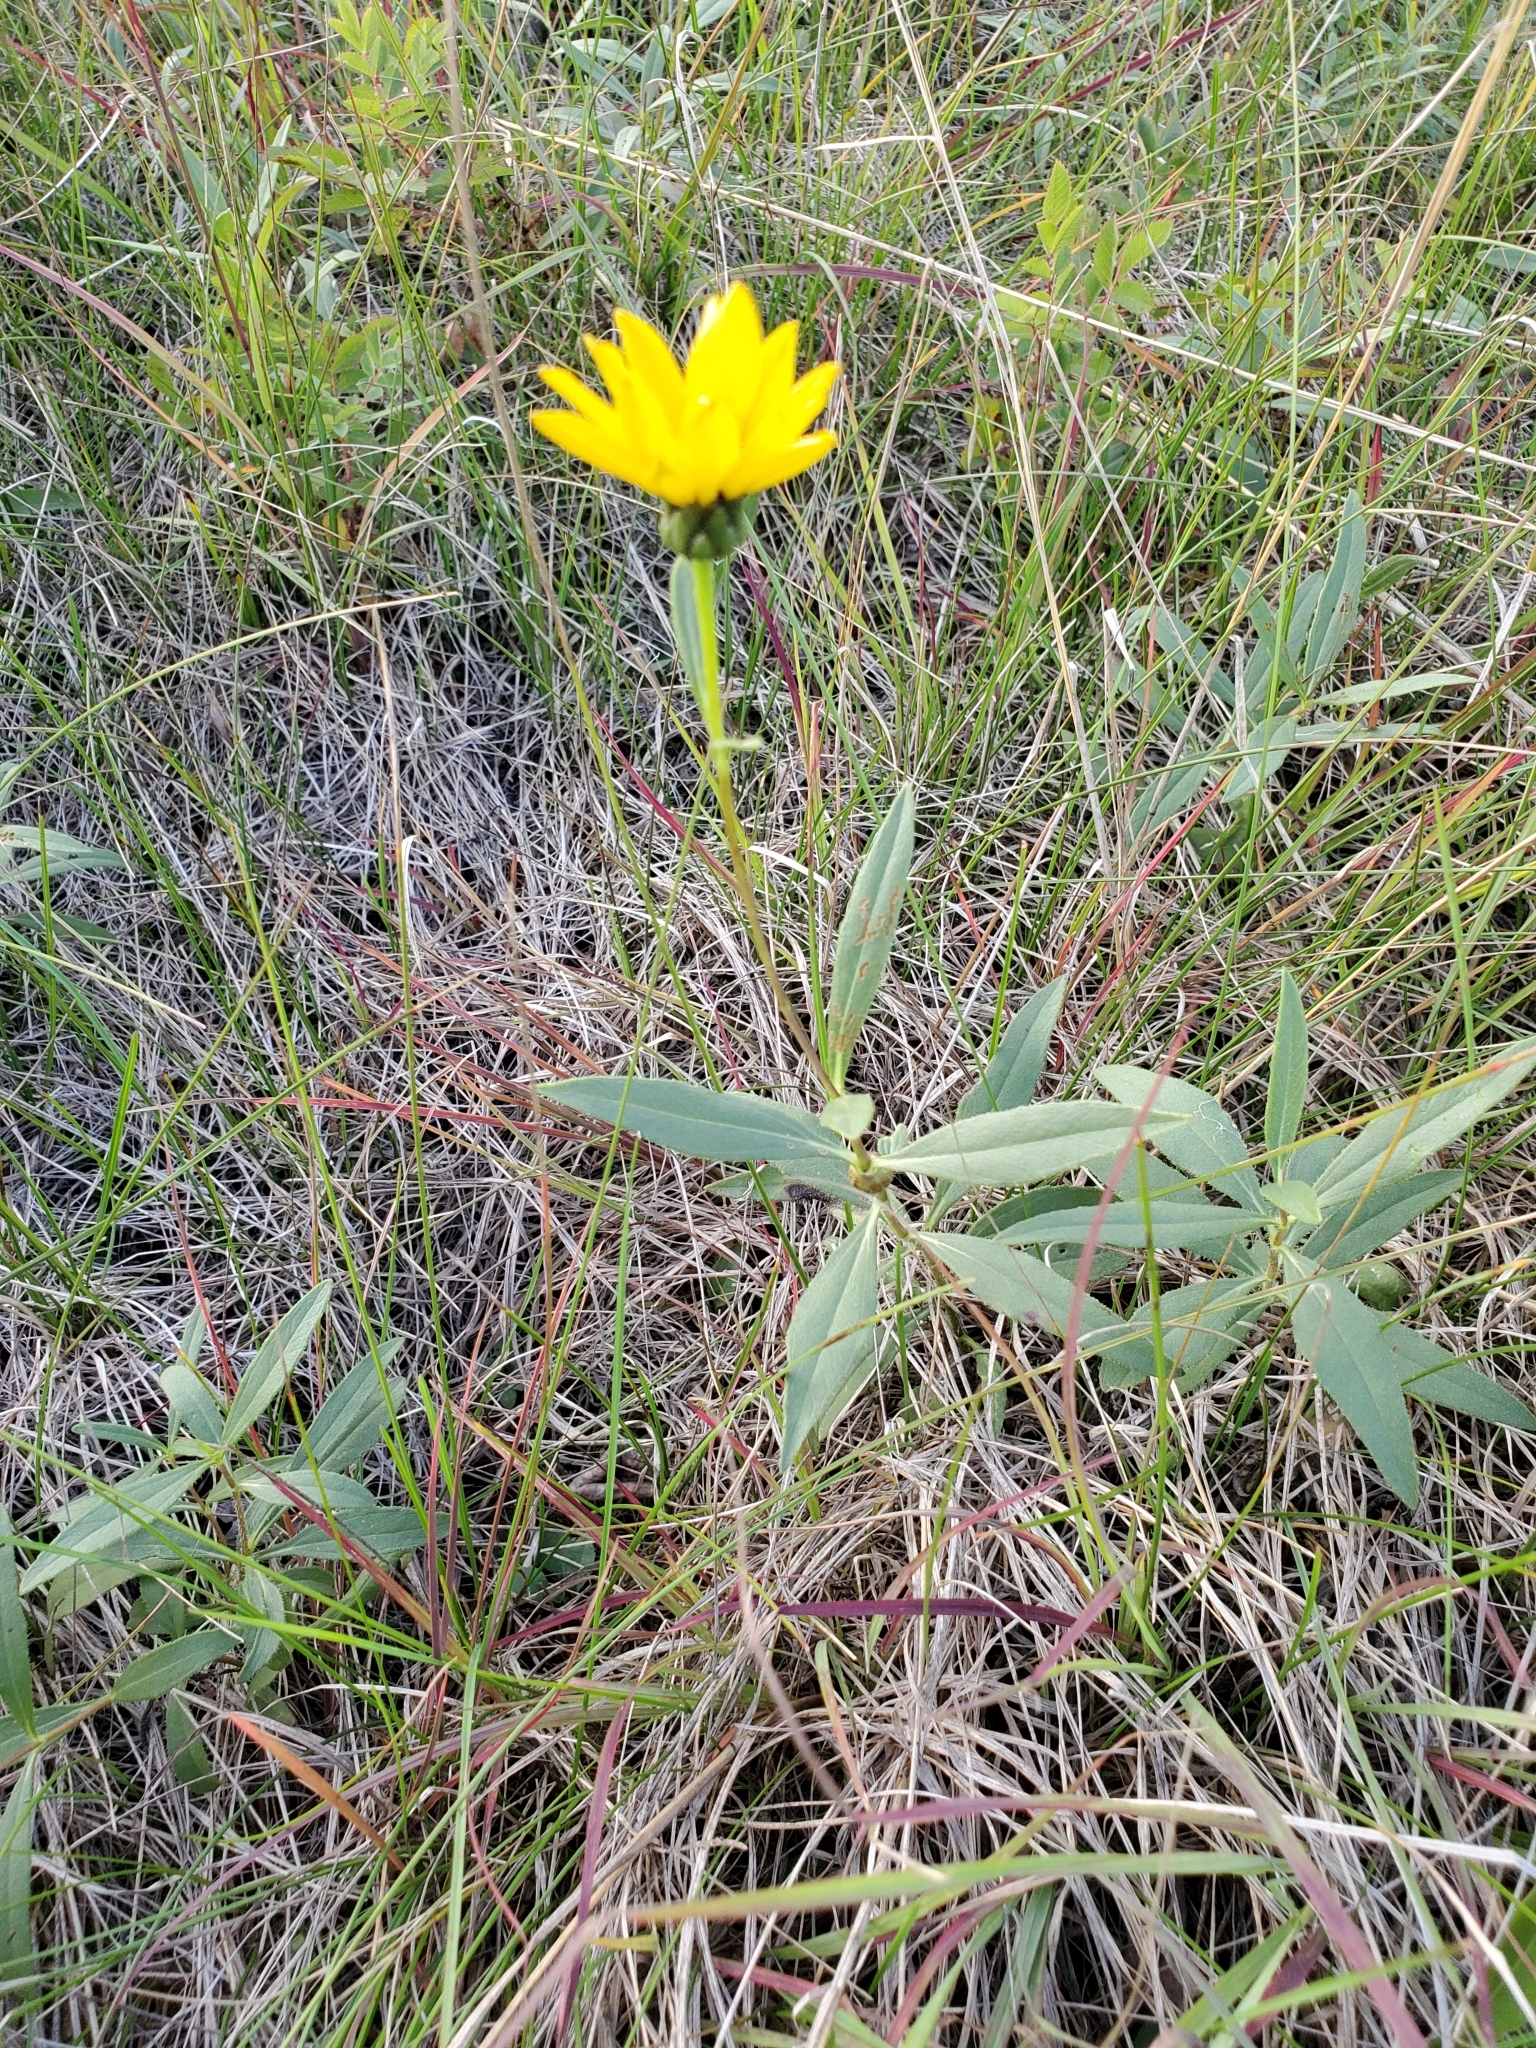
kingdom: Plantae
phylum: Tracheophyta
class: Magnoliopsida
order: Asterales
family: Asteraceae
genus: Helianthus
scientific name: Helianthus pauciflorus
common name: Stiff sunflower
